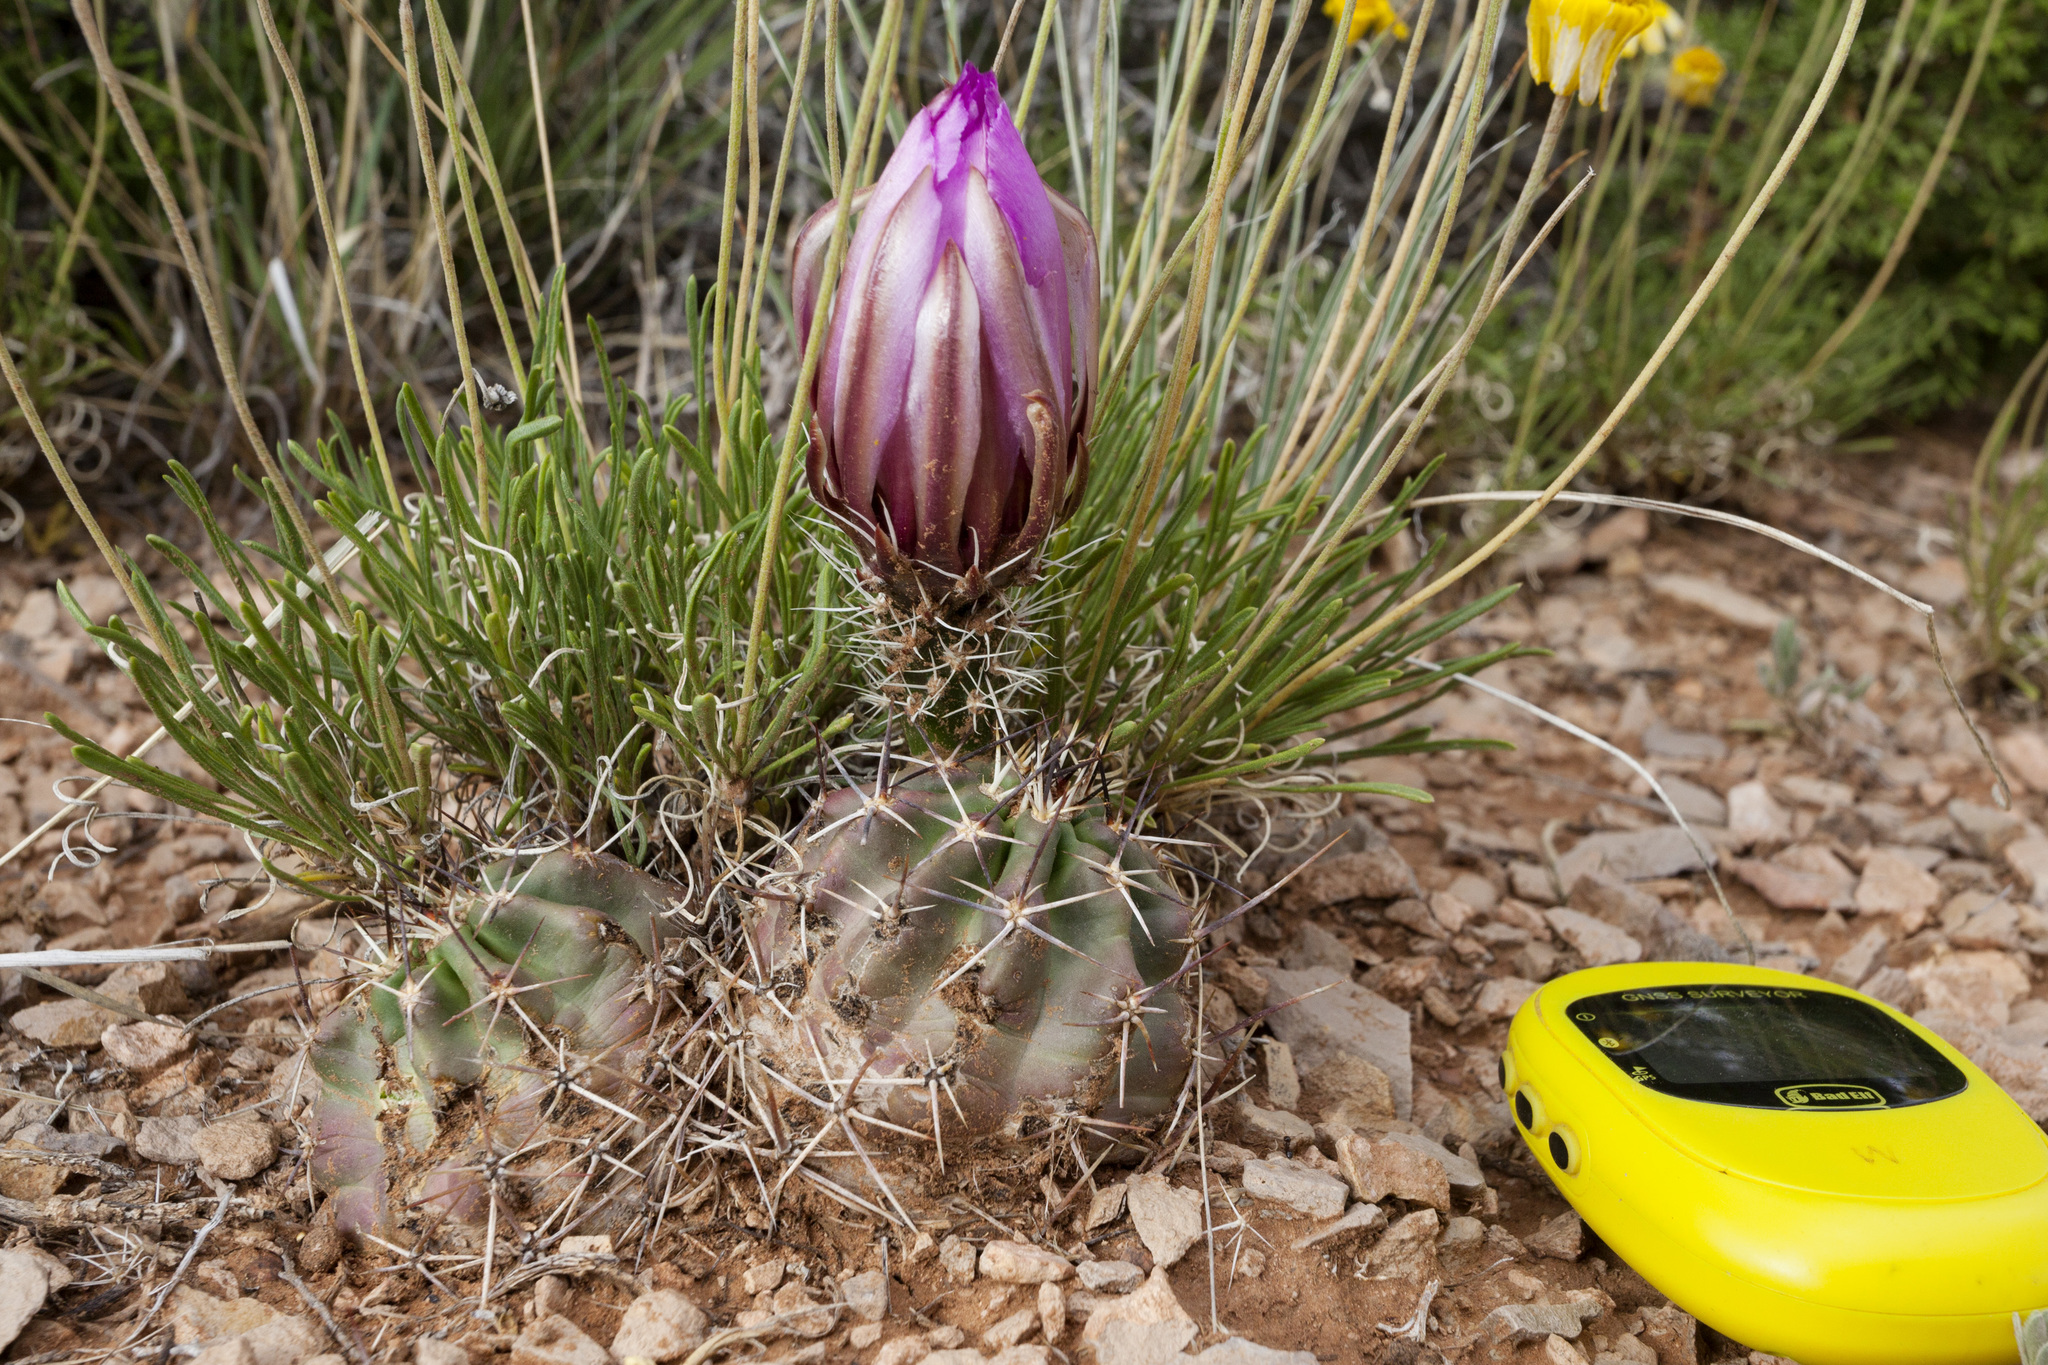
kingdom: Plantae
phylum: Tracheophyta
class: Magnoliopsida
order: Caryophyllales
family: Cactaceae
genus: Echinocereus
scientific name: Echinocereus fendleri
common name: Fendler's hedgehog cactus
